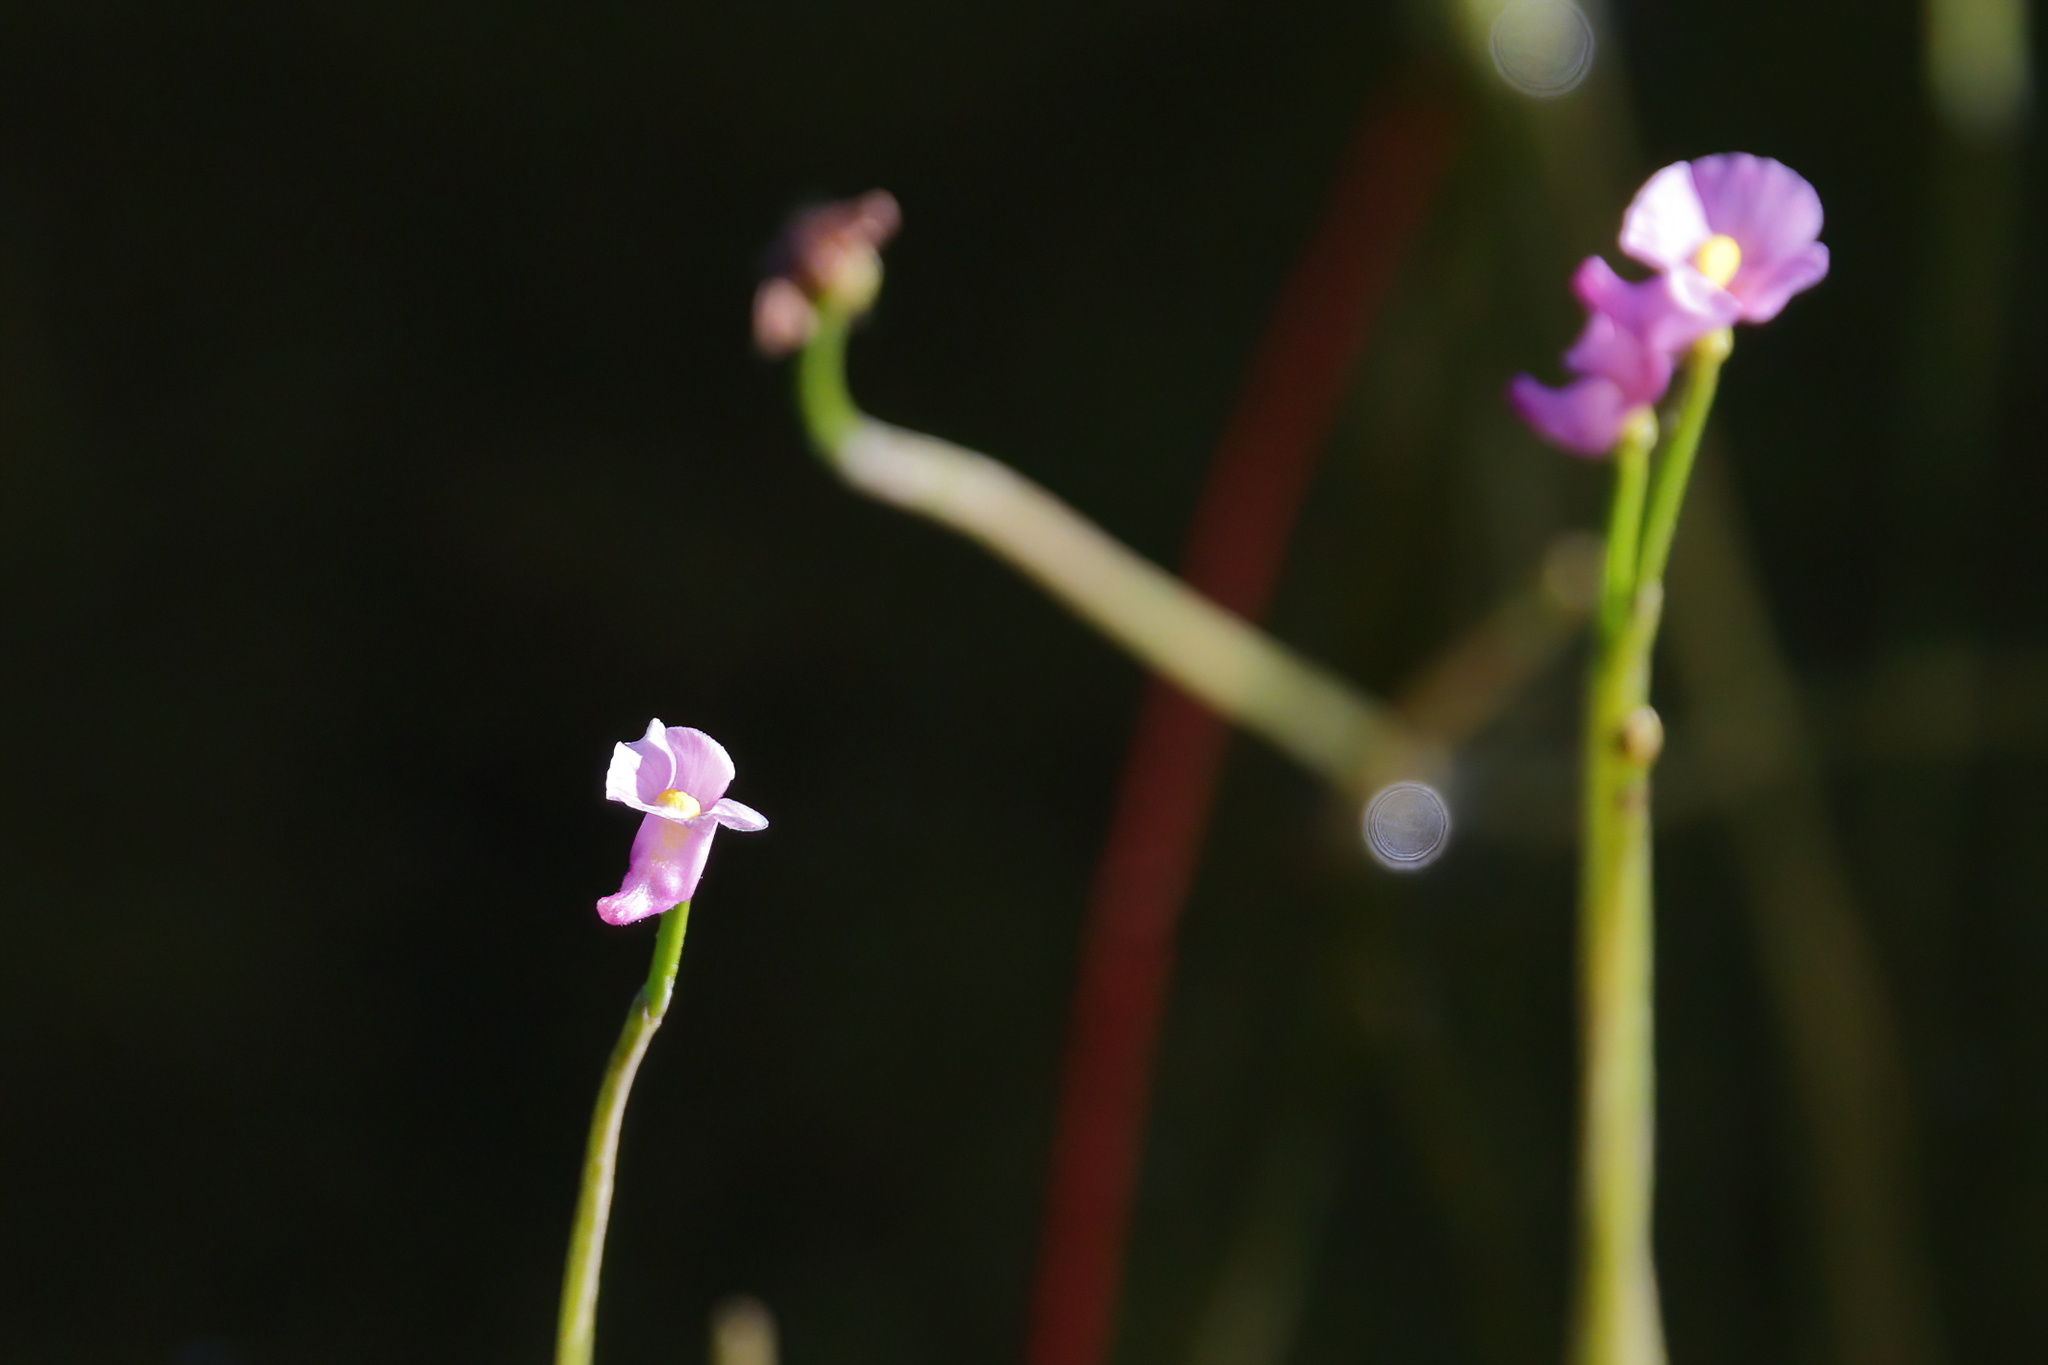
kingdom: Plantae
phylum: Tracheophyta
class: Magnoliopsida
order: Lamiales
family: Lentibulariaceae
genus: Utricularia
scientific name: Utricularia resupinata
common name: Northeastern bladderwort
